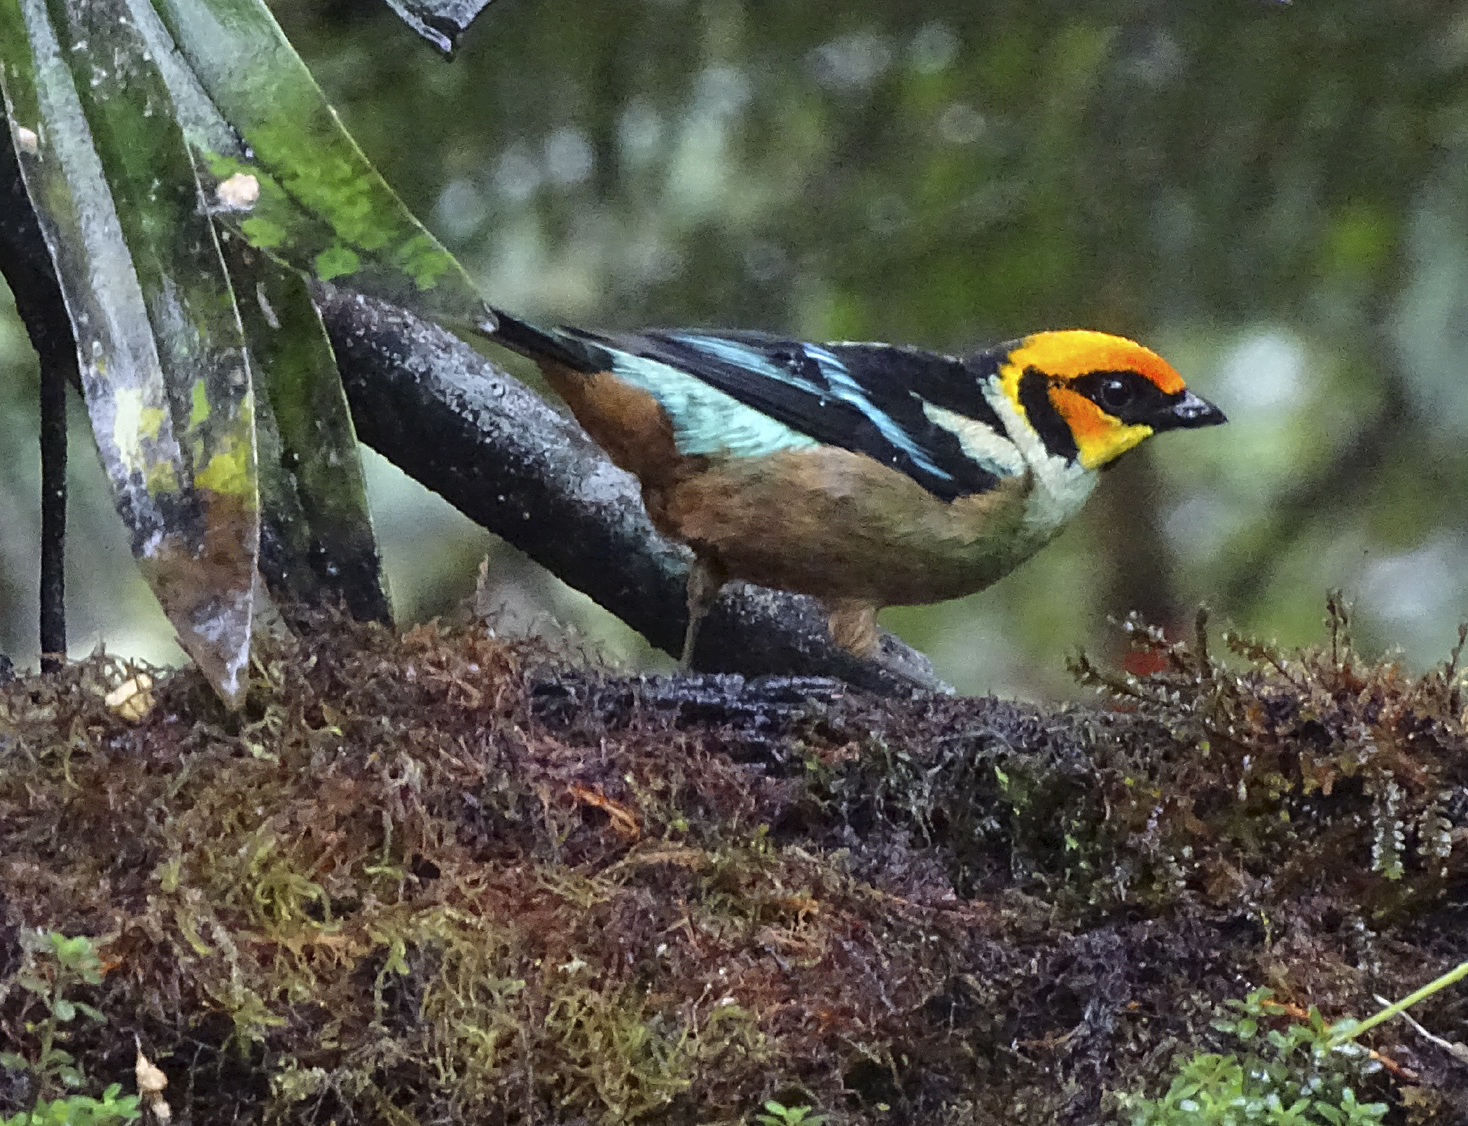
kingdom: Animalia
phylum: Chordata
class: Aves
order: Passeriformes
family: Thraupidae
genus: Tangara
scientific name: Tangara parzudakii
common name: Flame-faced tanager
